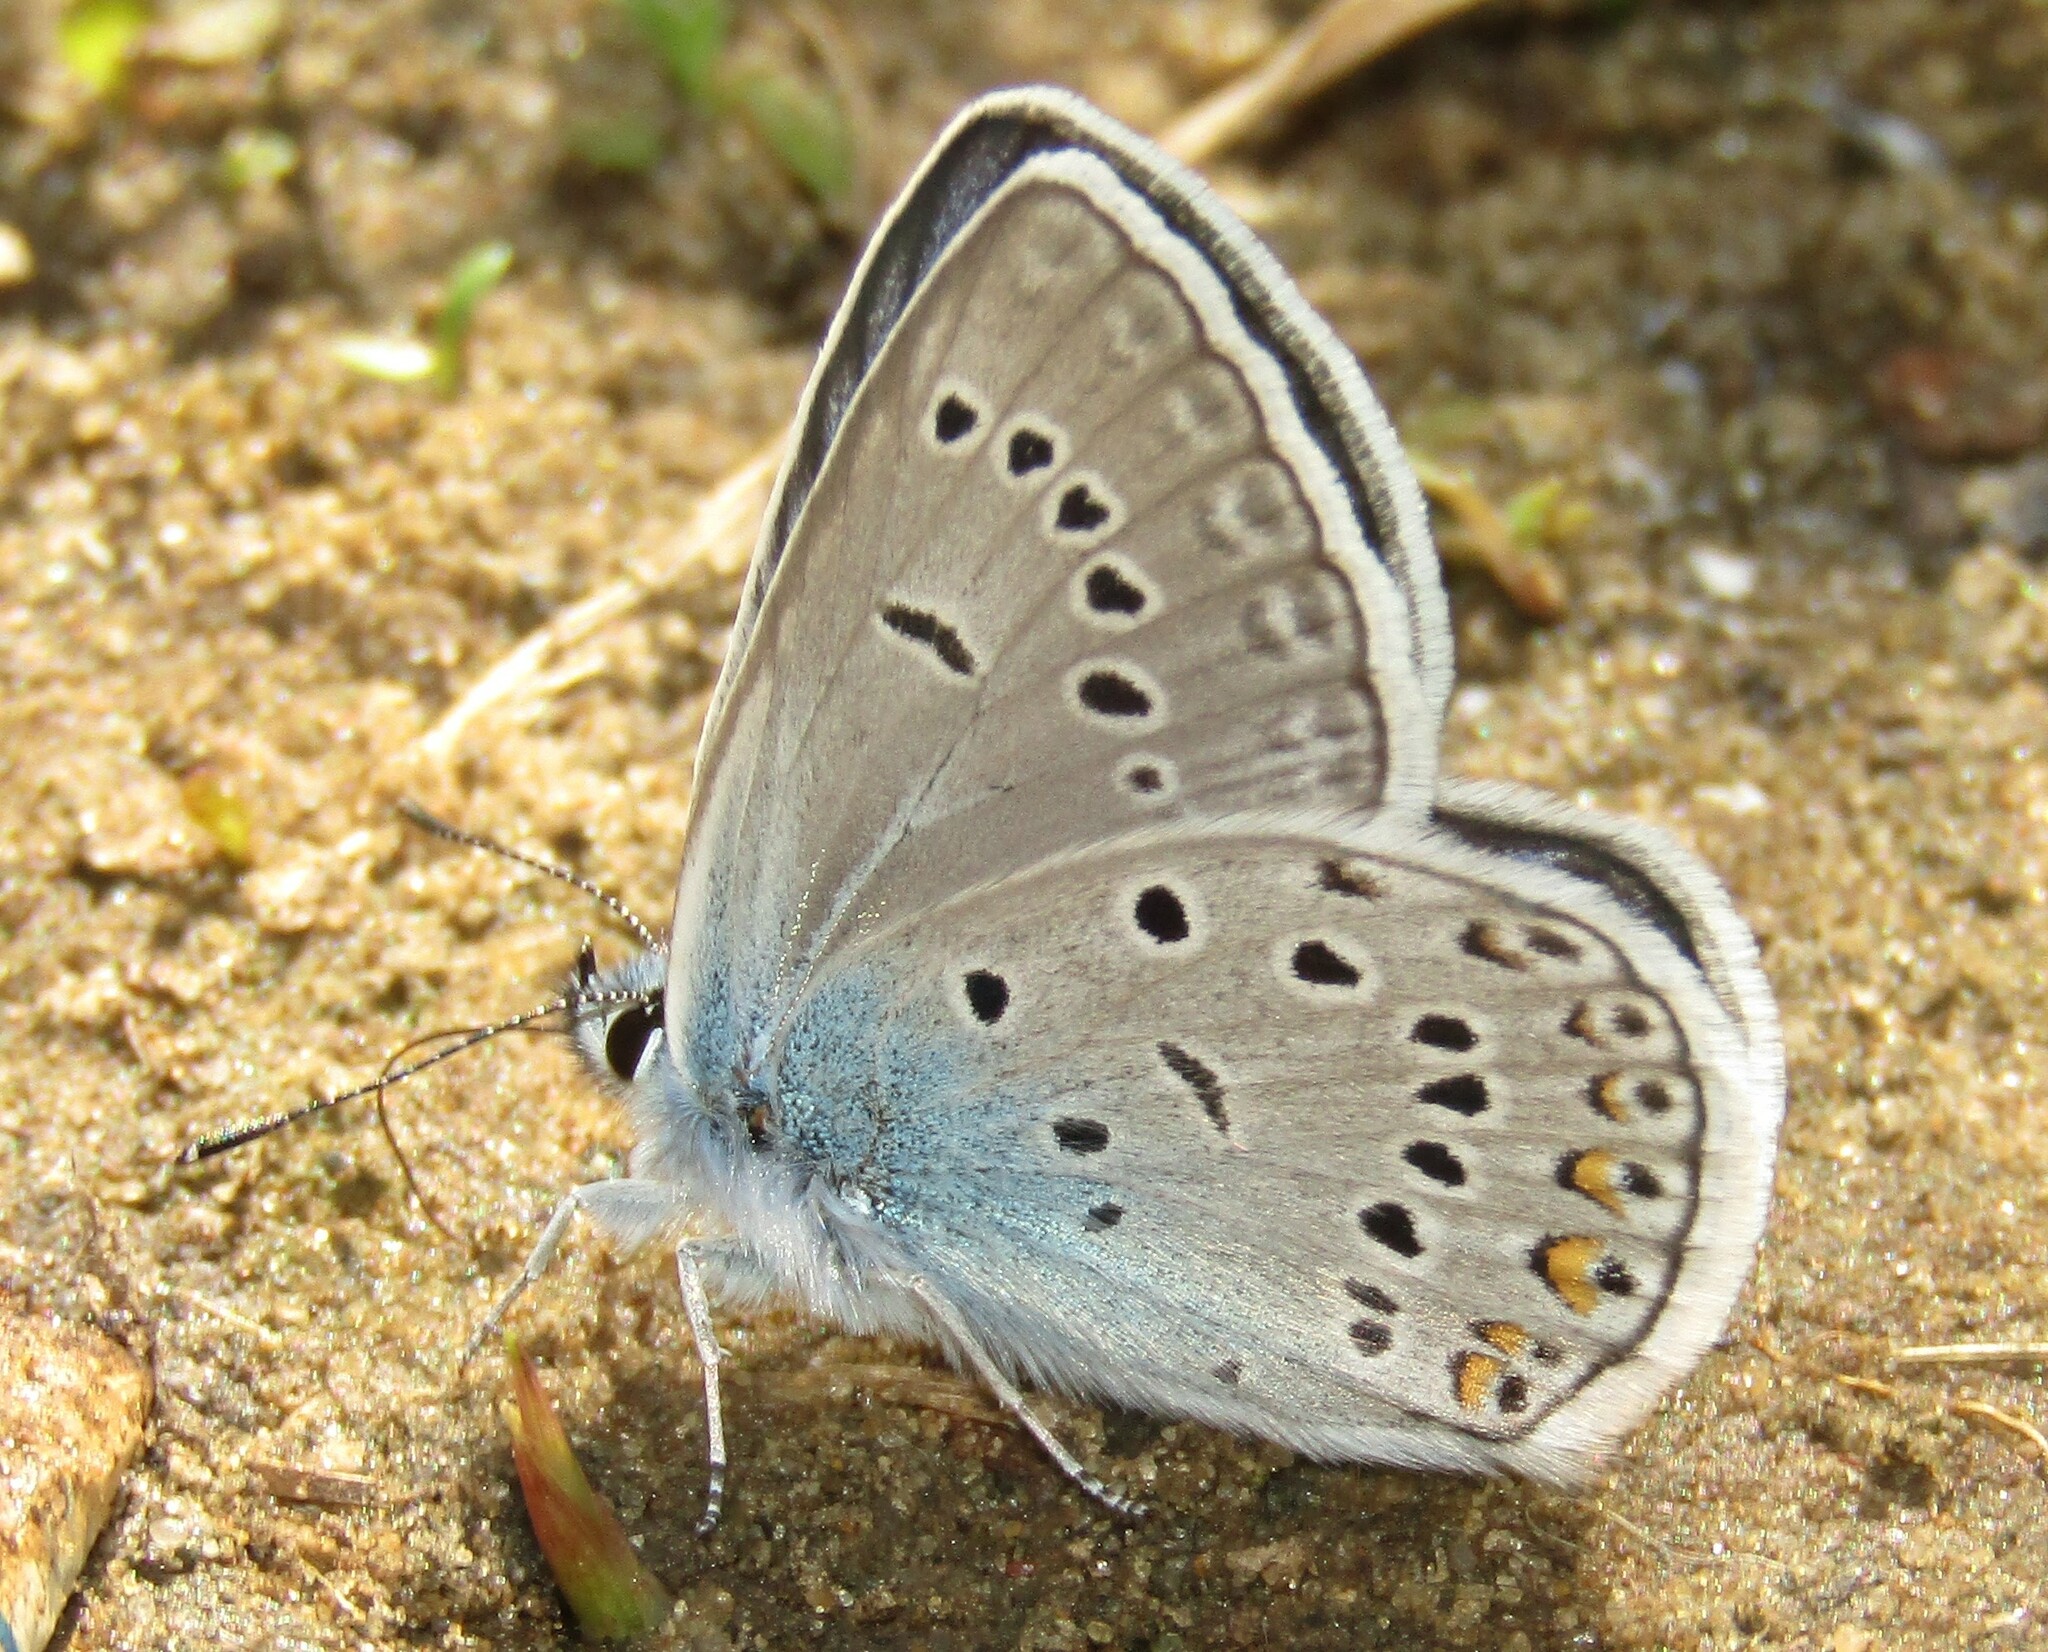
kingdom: Animalia
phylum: Arthropoda
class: Insecta
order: Lepidoptera
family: Lycaenidae
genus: Plebejus
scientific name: Plebejus amanda
